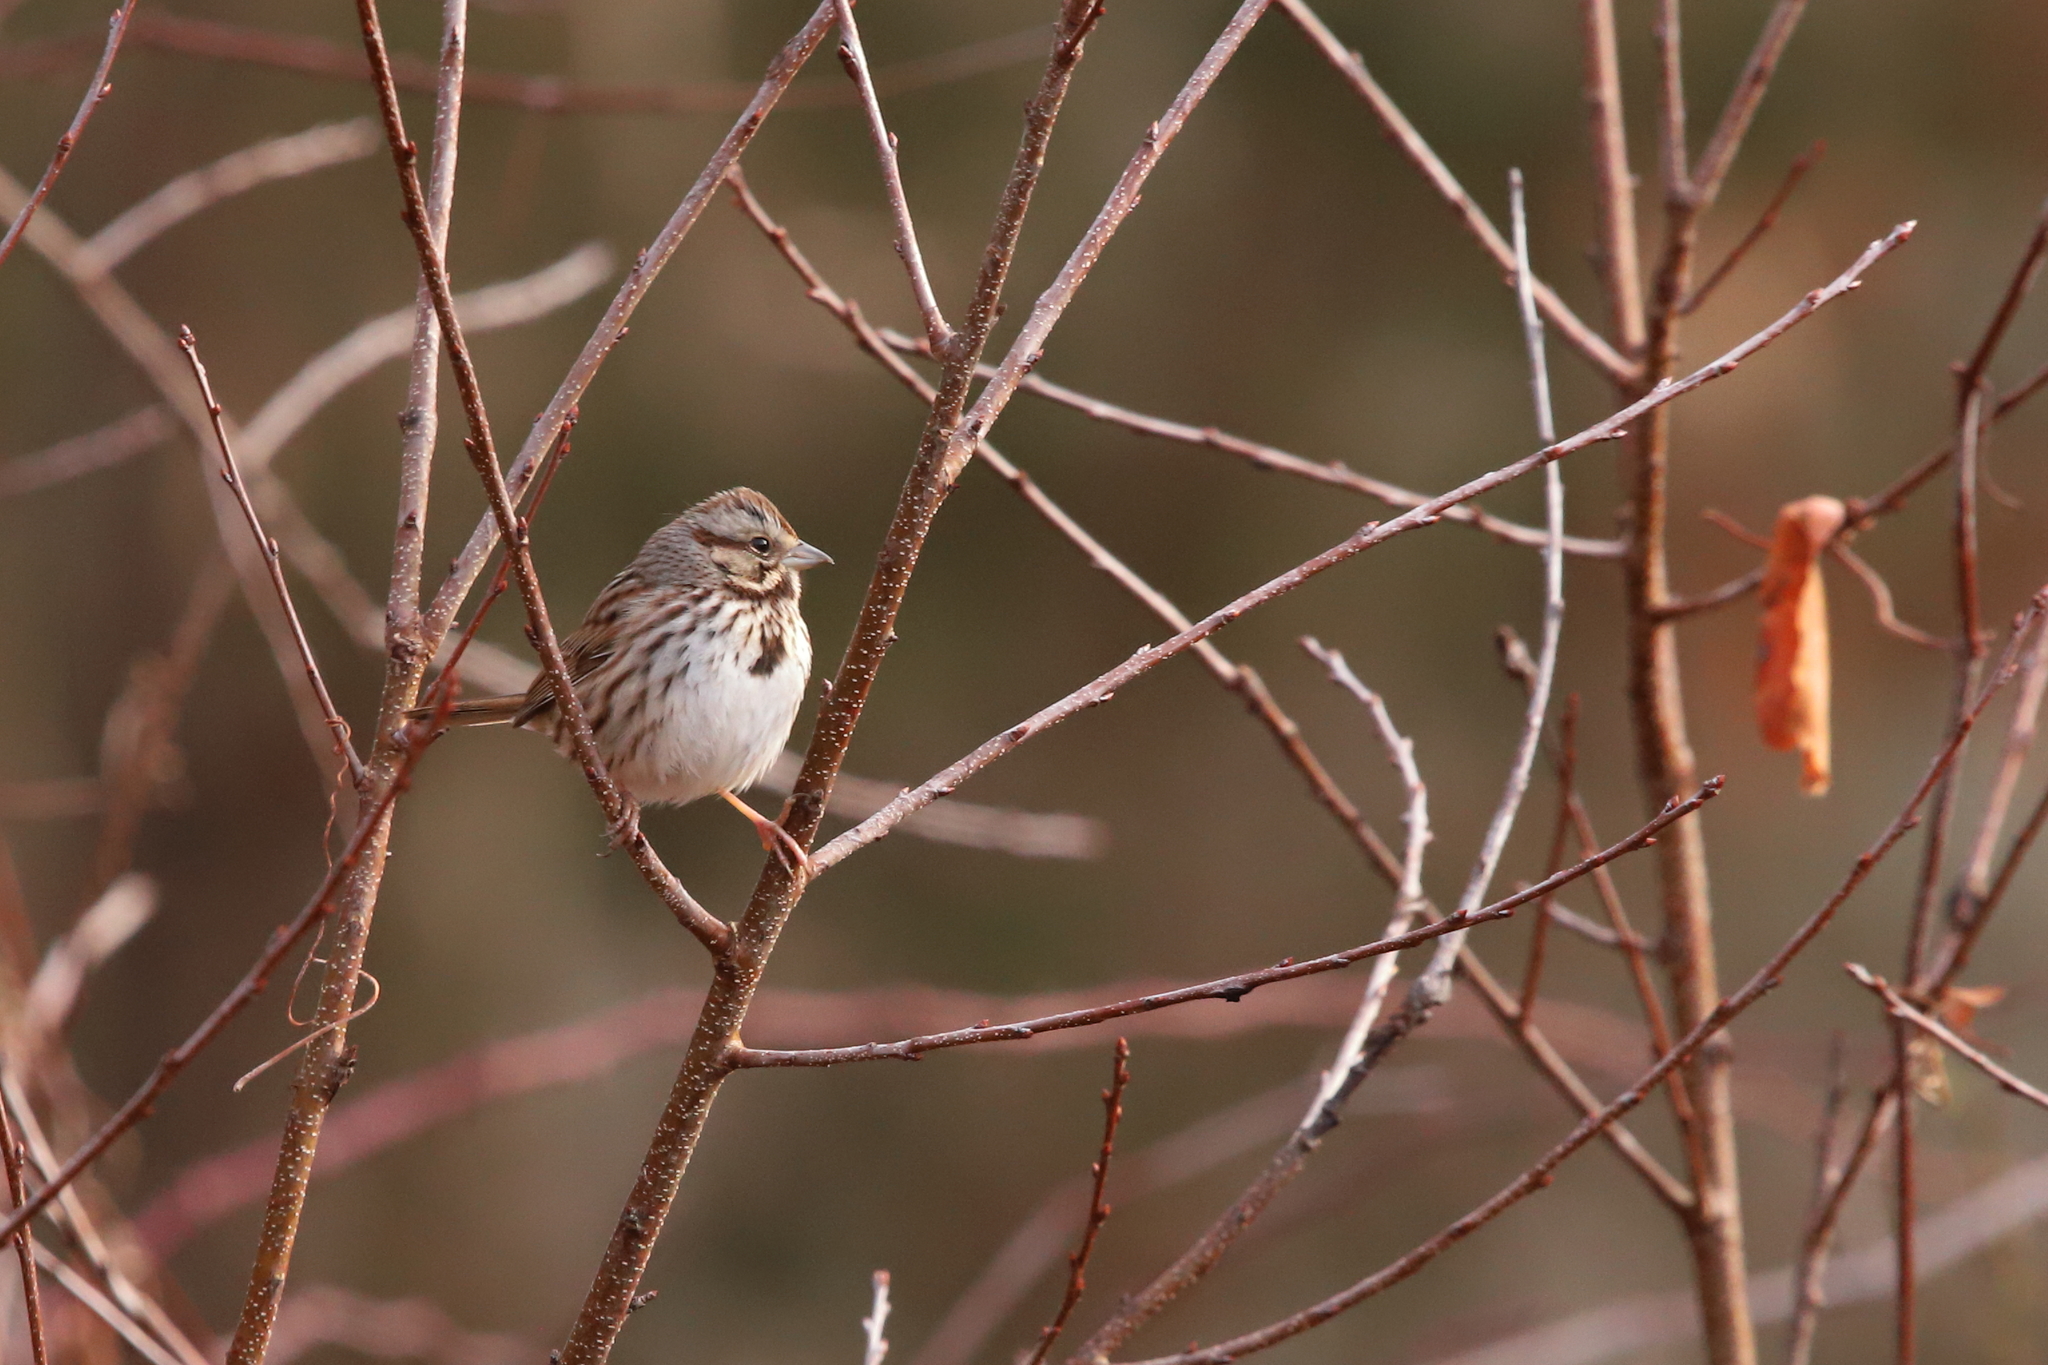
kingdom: Animalia
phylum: Chordata
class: Aves
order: Passeriformes
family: Passerellidae
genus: Melospiza
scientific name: Melospiza melodia
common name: Song sparrow
